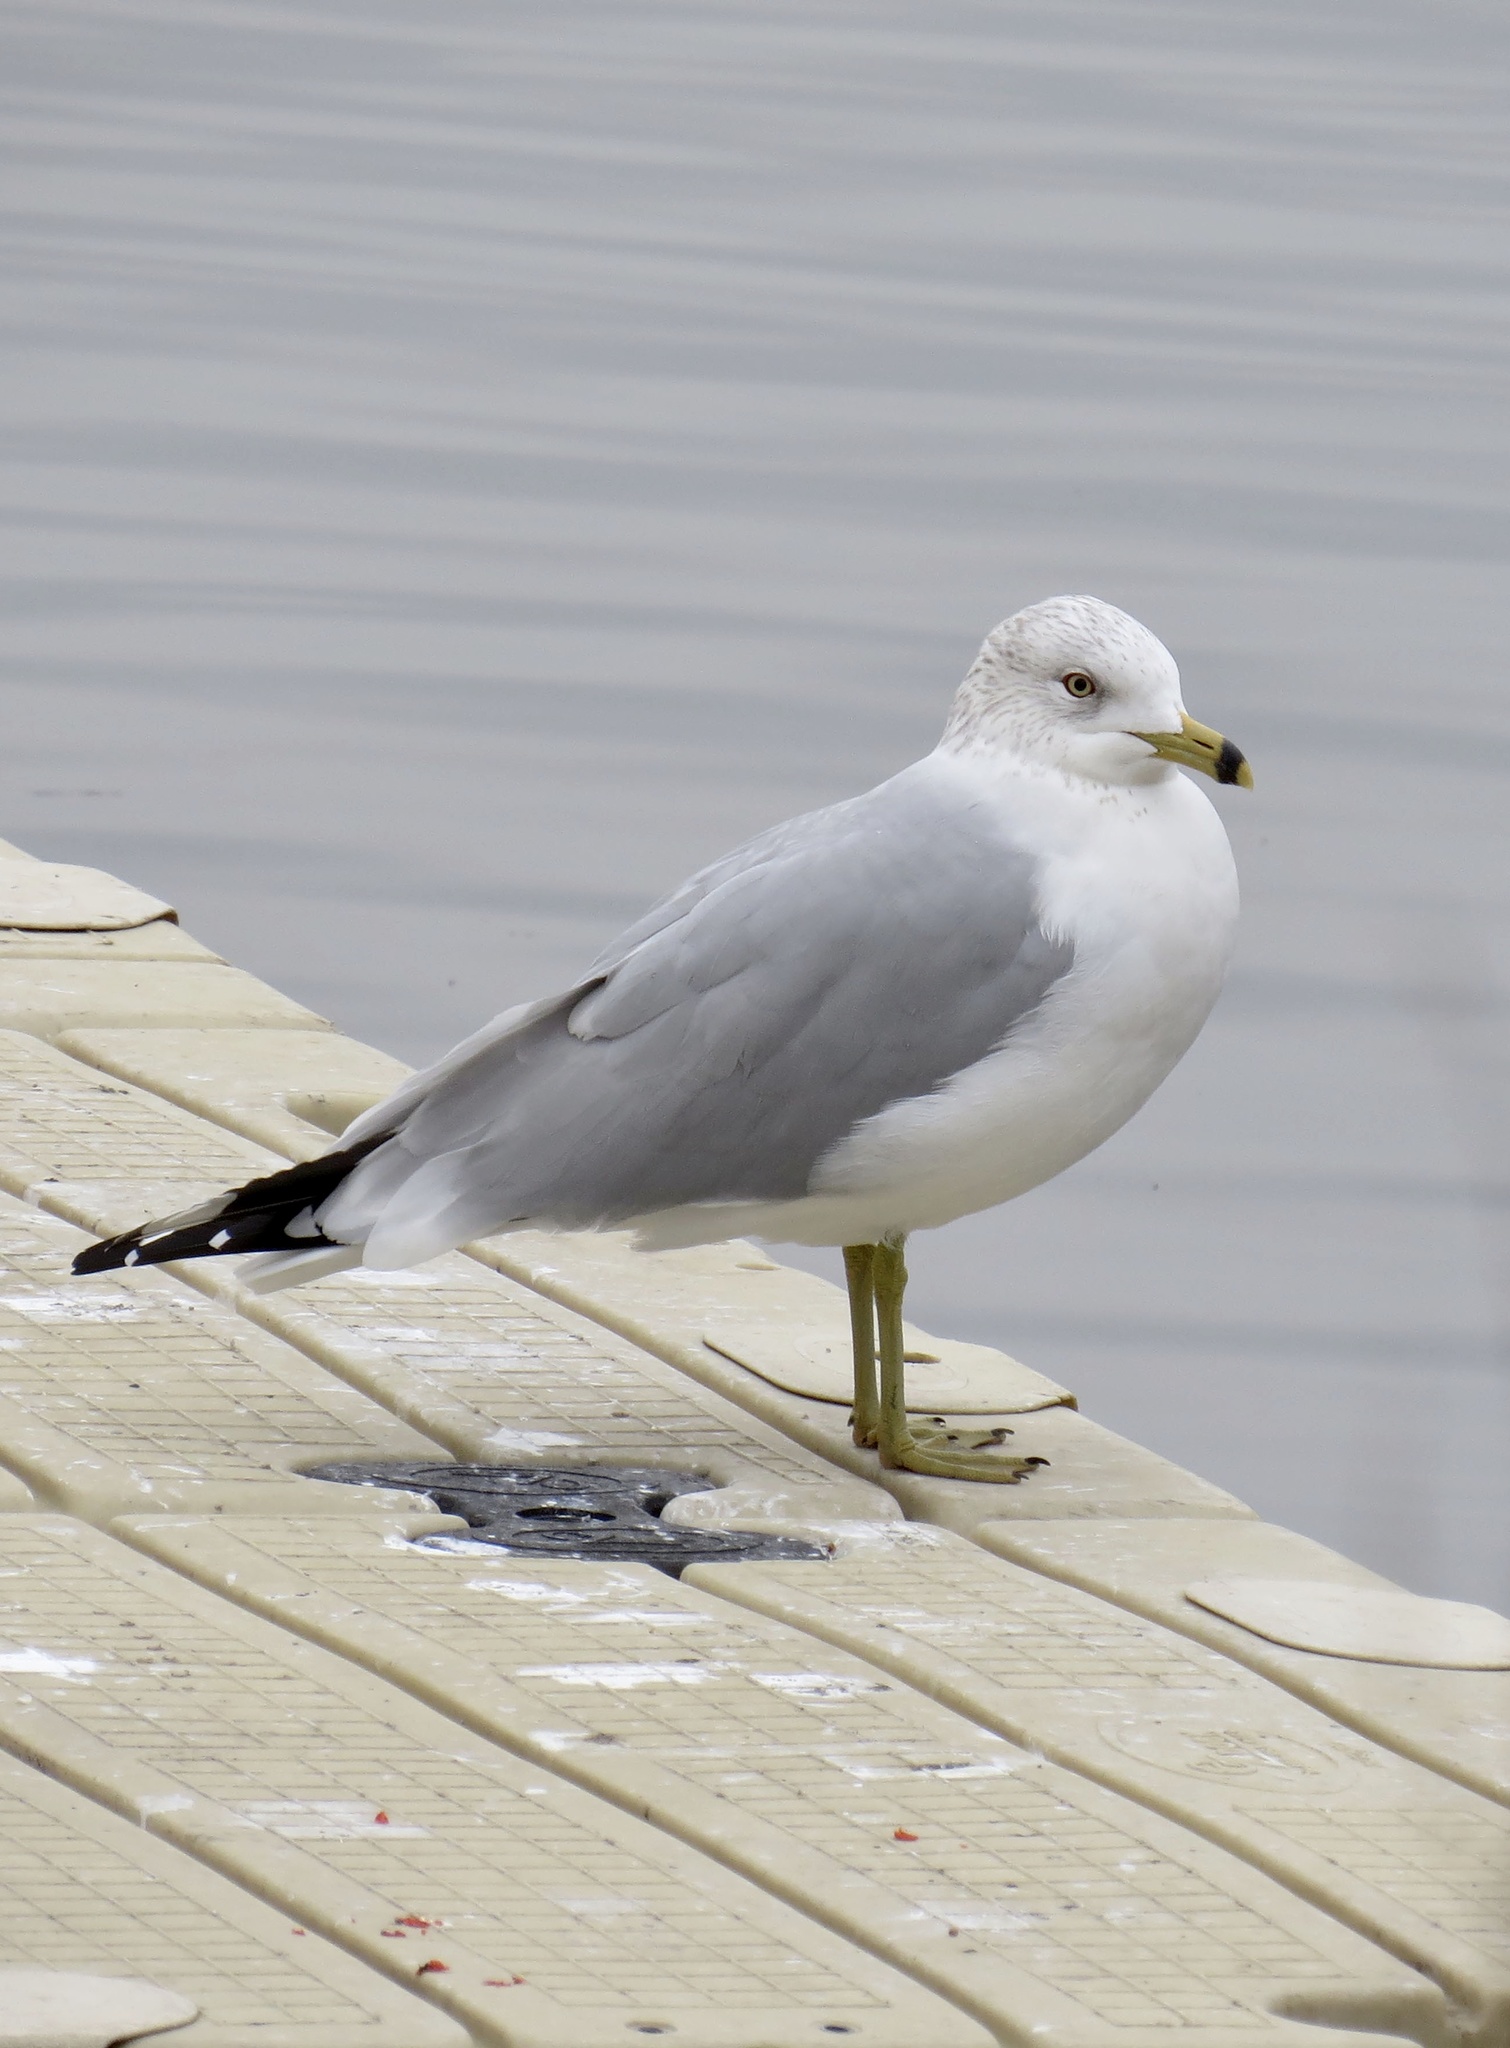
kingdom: Animalia
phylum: Chordata
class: Aves
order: Charadriiformes
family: Laridae
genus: Larus
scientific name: Larus delawarensis
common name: Ring-billed gull
